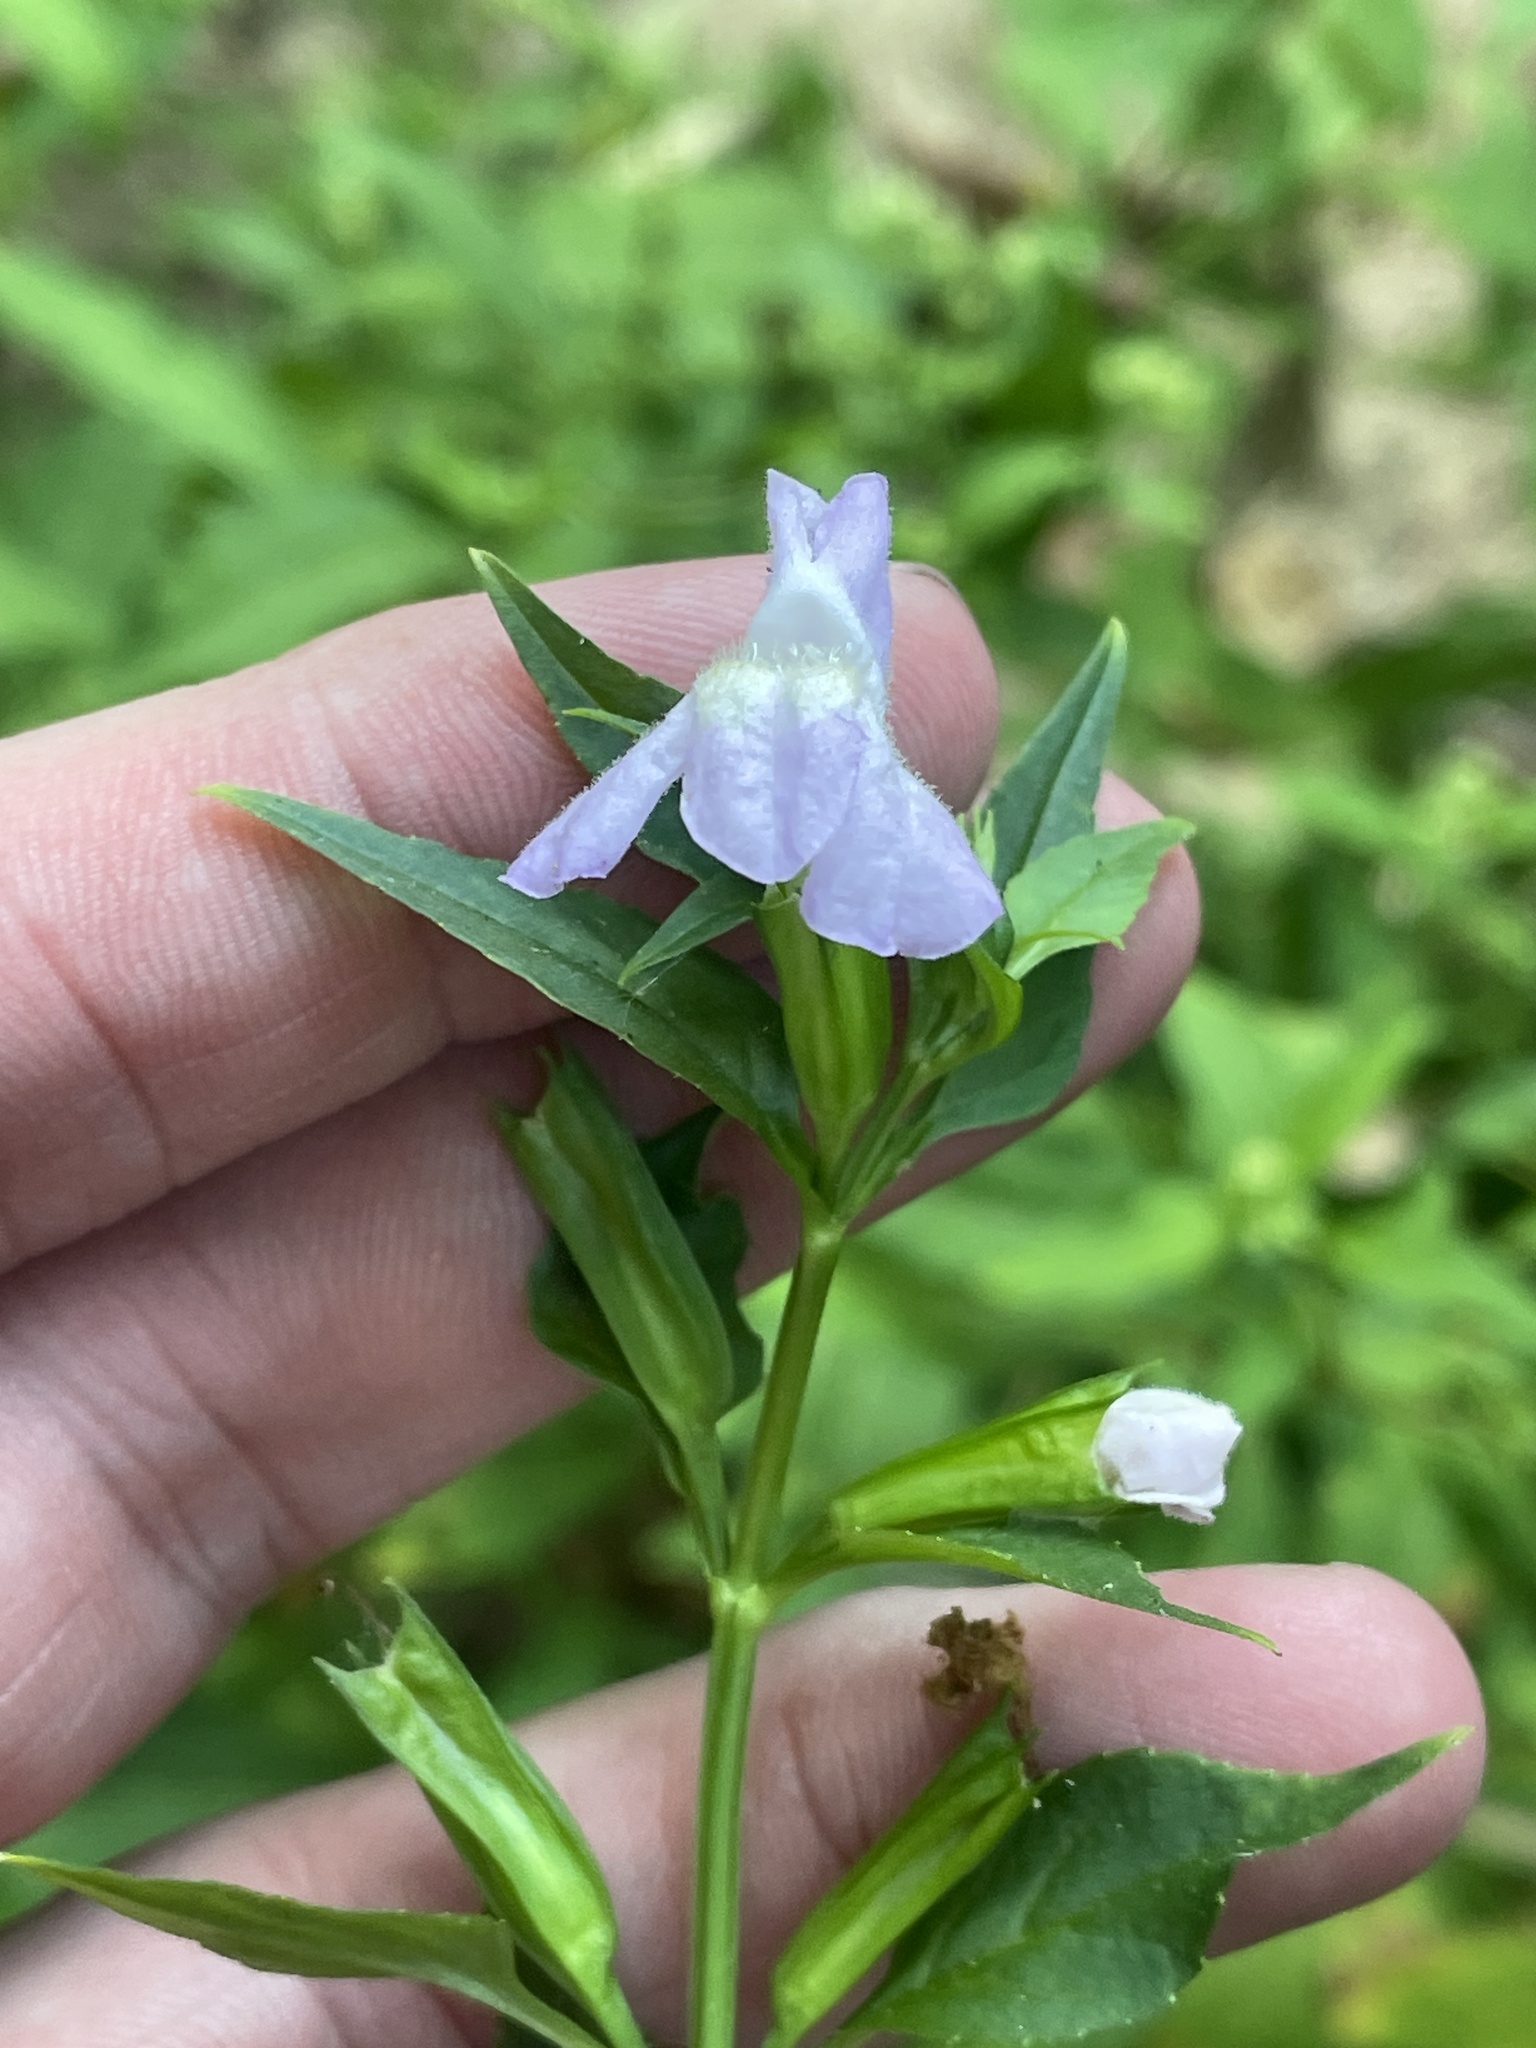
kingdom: Plantae
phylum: Tracheophyta
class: Magnoliopsida
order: Lamiales
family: Phrymaceae
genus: Mimulus
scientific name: Mimulus alatus
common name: Sharp-wing monkey-flower
